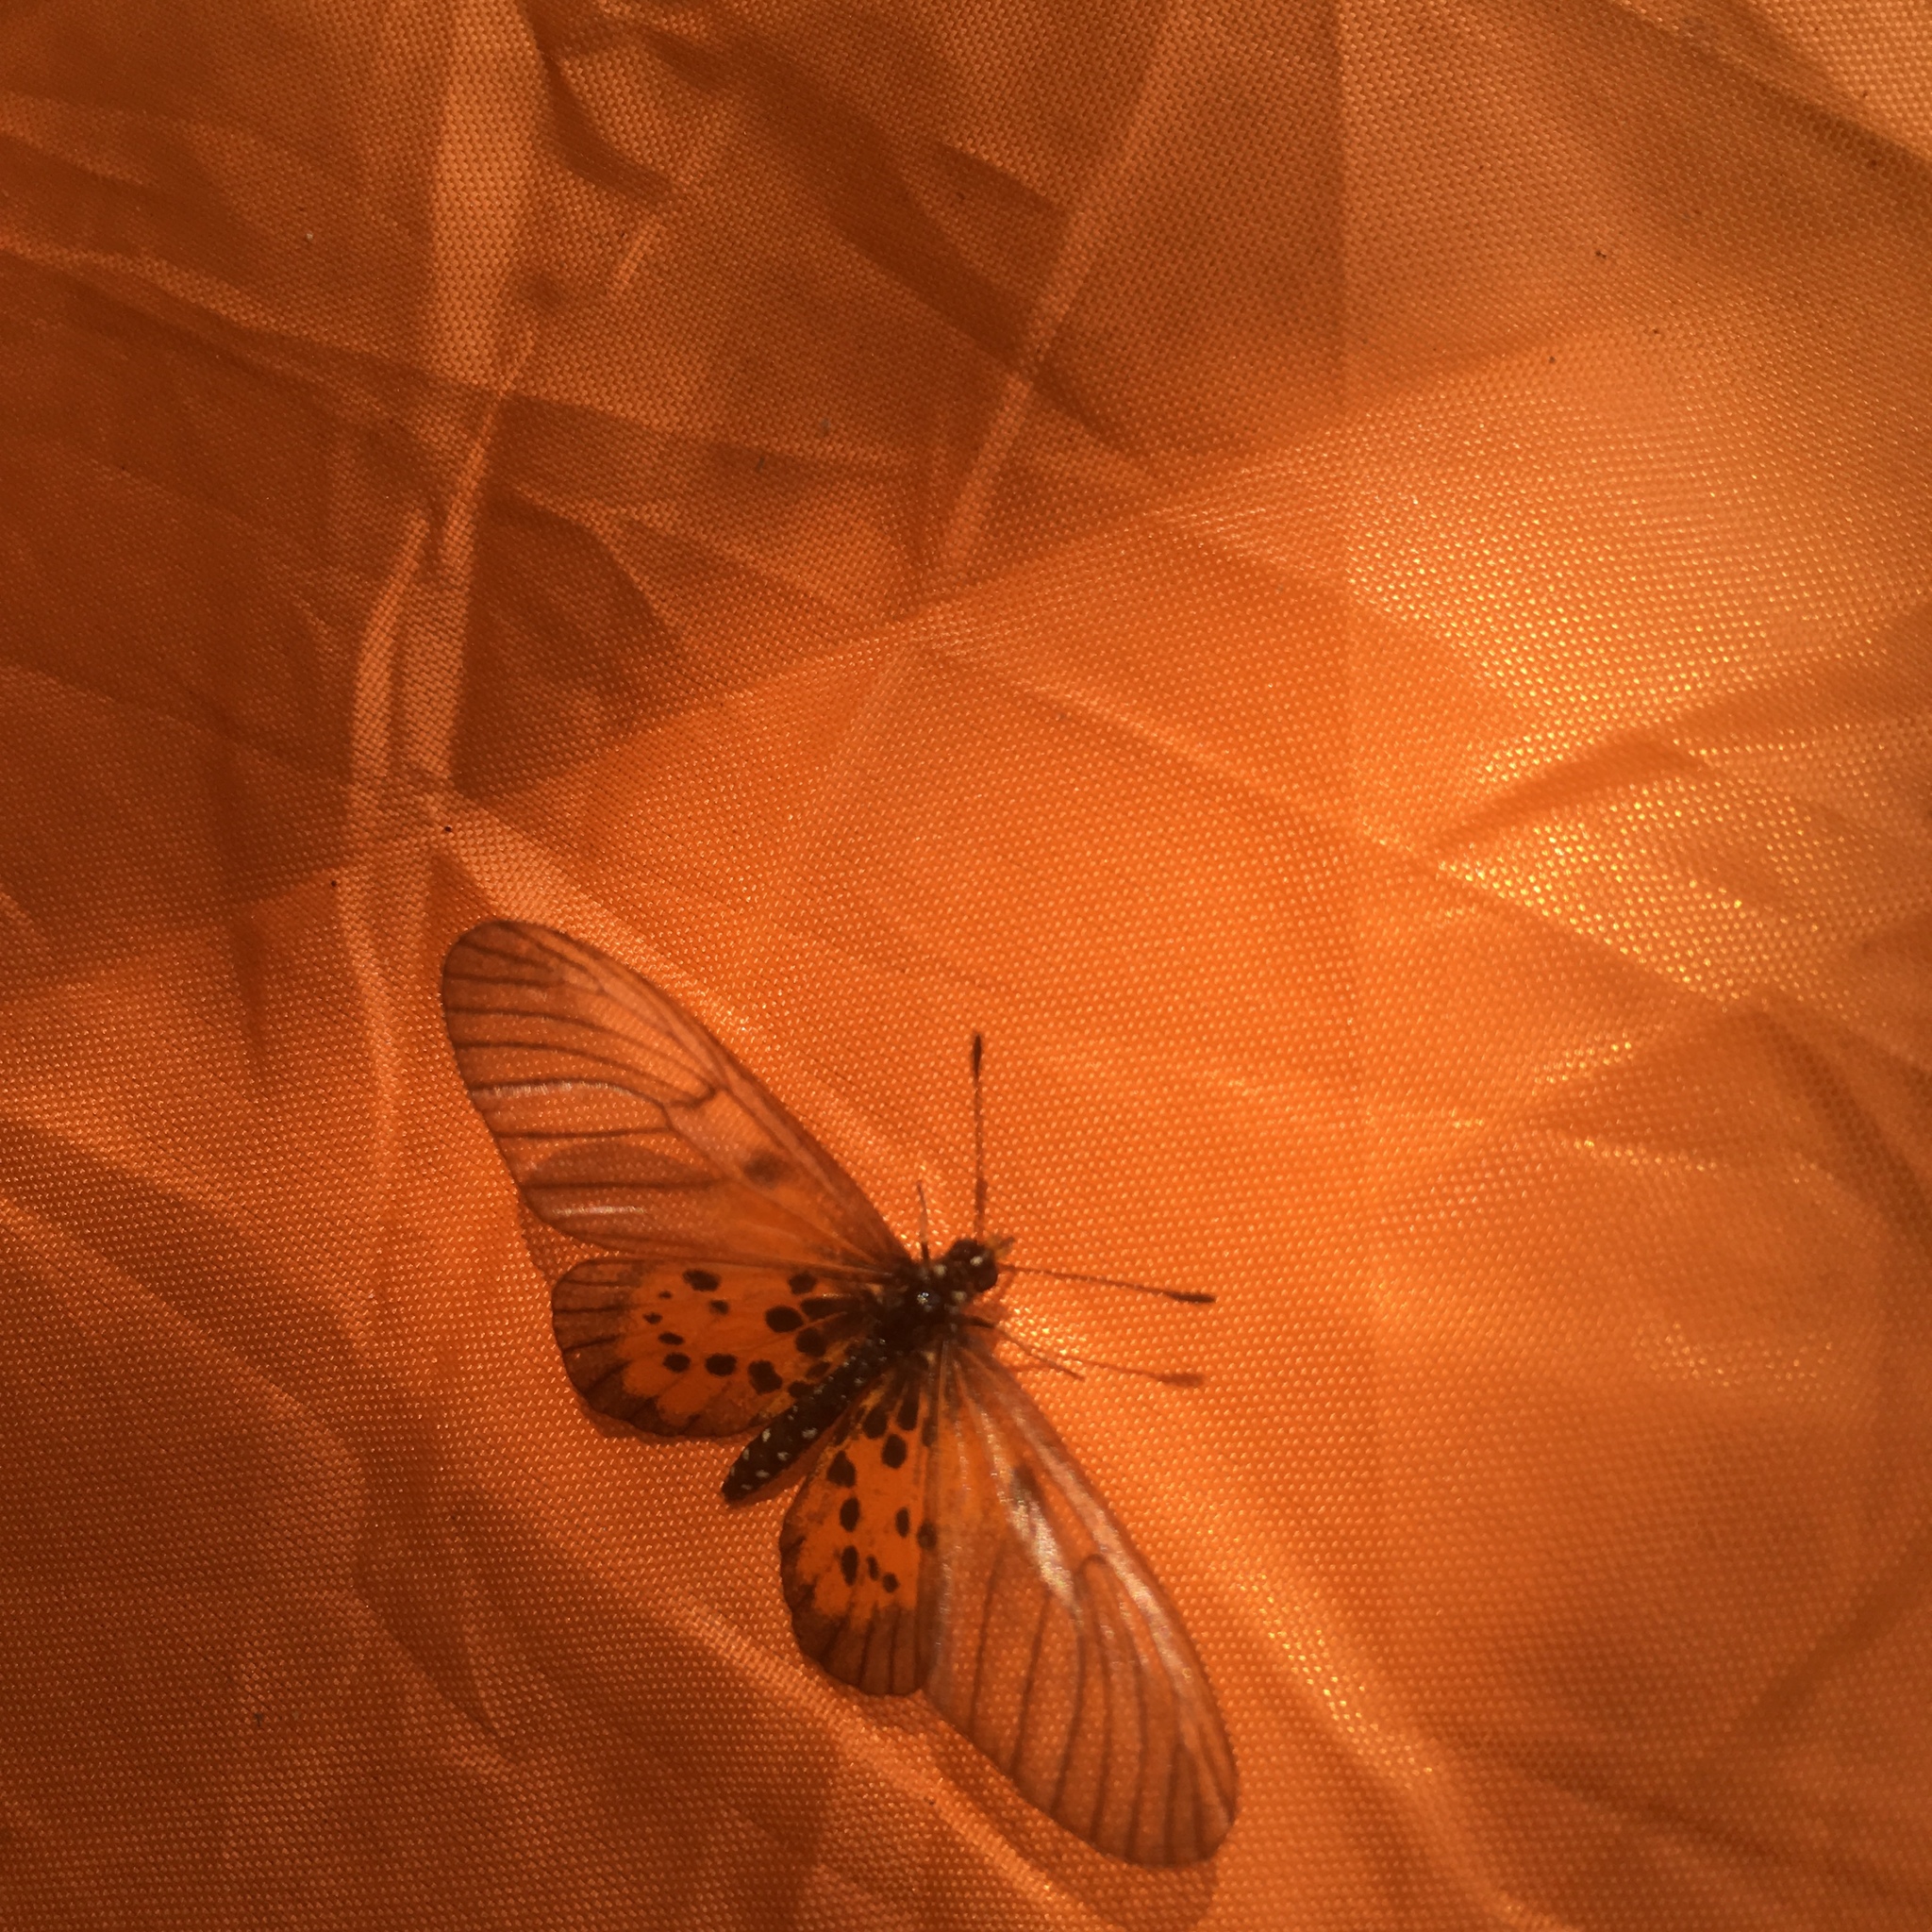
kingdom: Animalia
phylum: Arthropoda
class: Insecta
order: Lepidoptera
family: Nymphalidae
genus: Acraea
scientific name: Acraea
